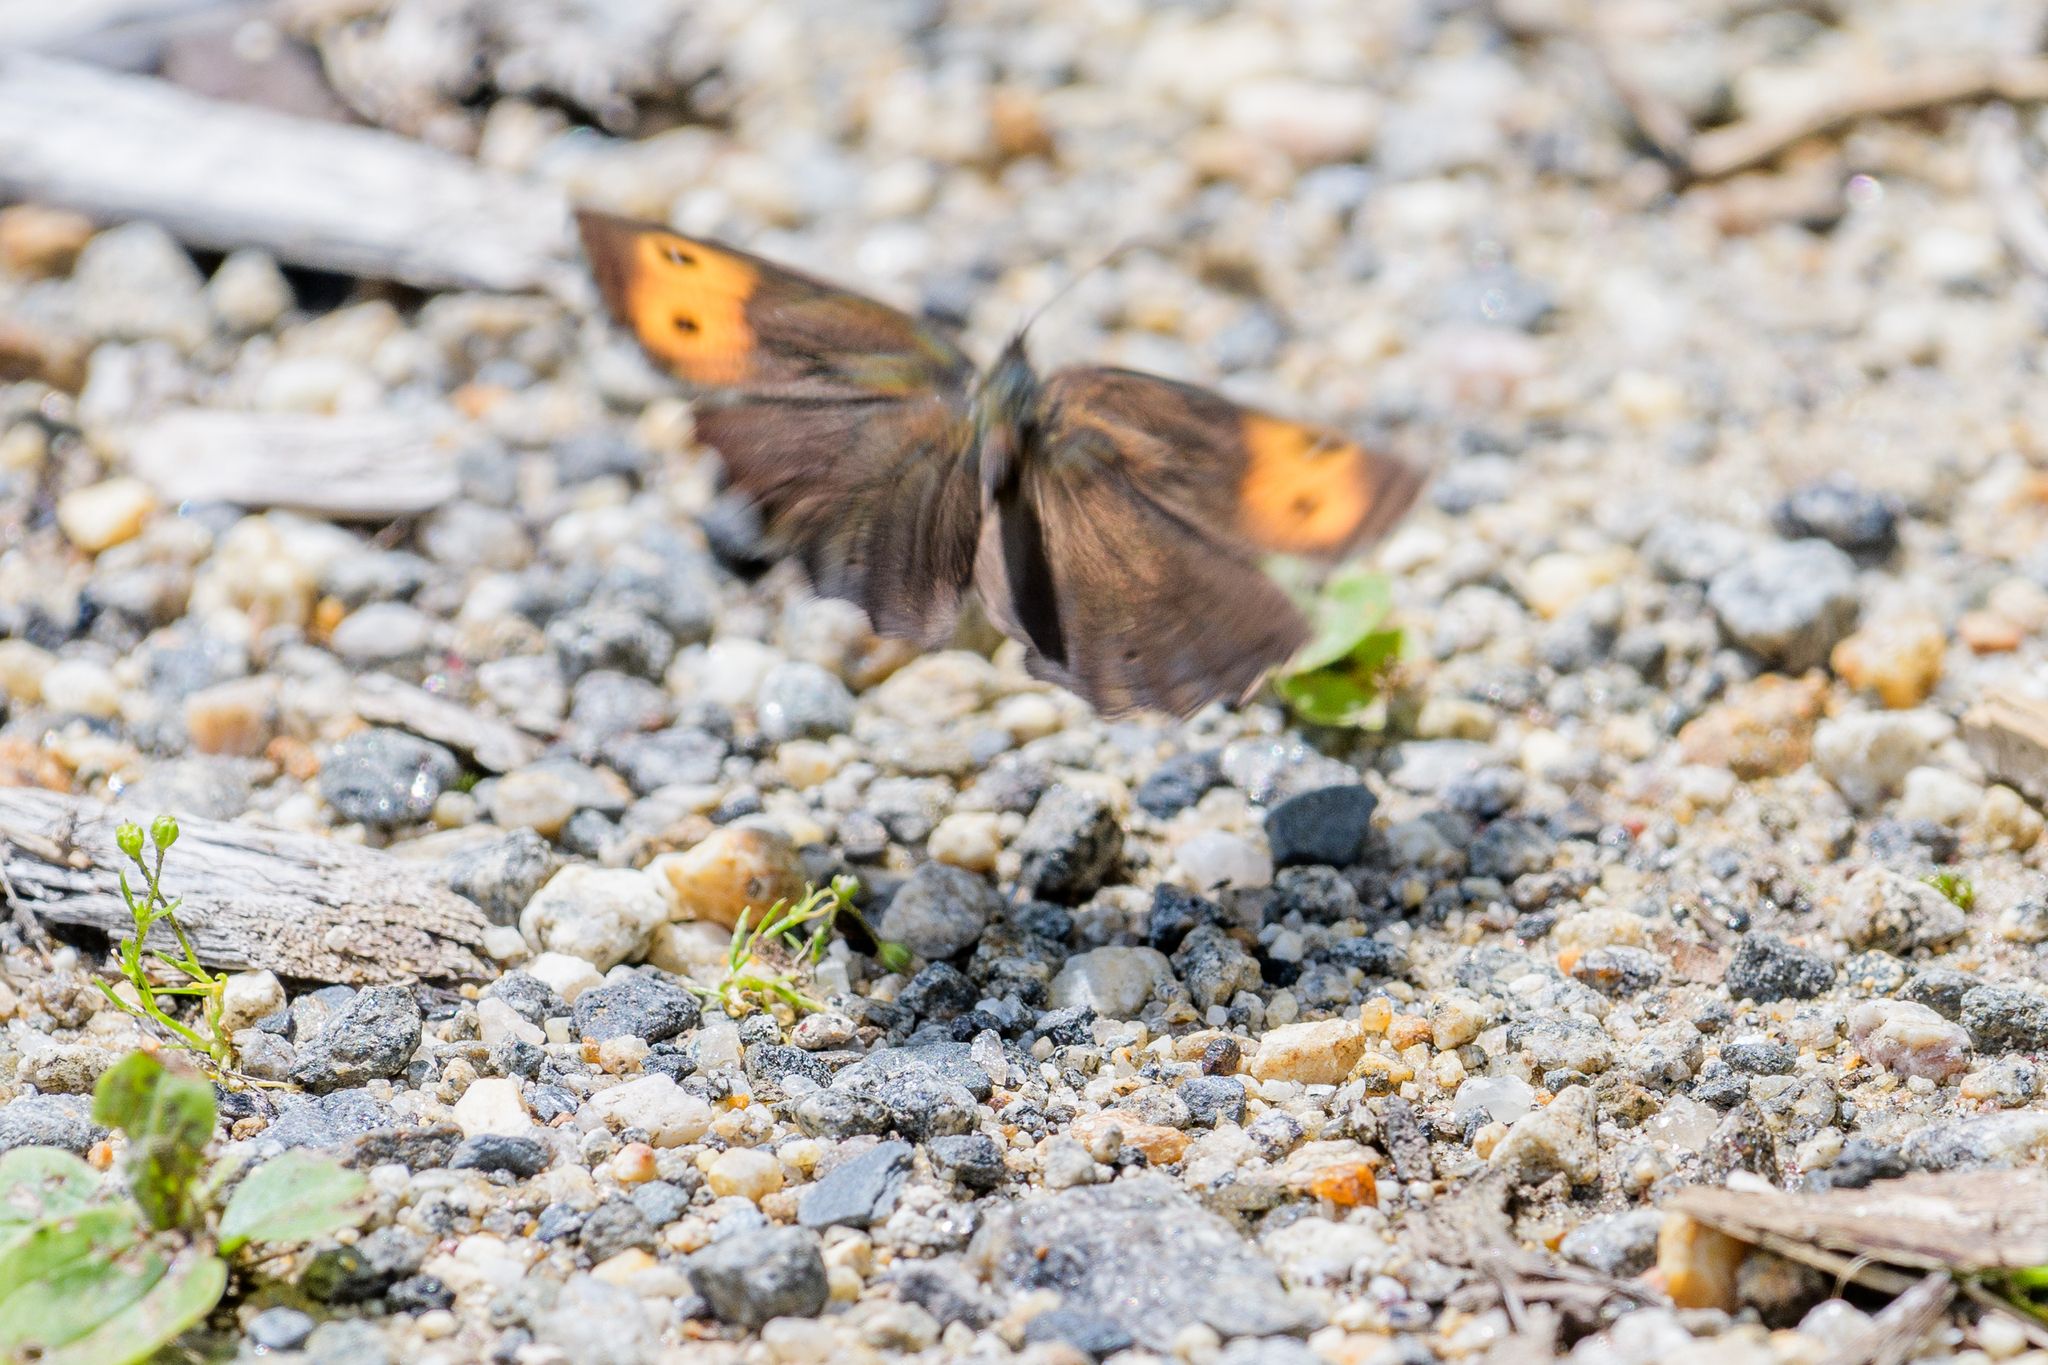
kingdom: Animalia
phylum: Arthropoda
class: Insecta
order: Lepidoptera
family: Nymphalidae
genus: Cercyonis
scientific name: Cercyonis pegala
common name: Common wood-nymph
